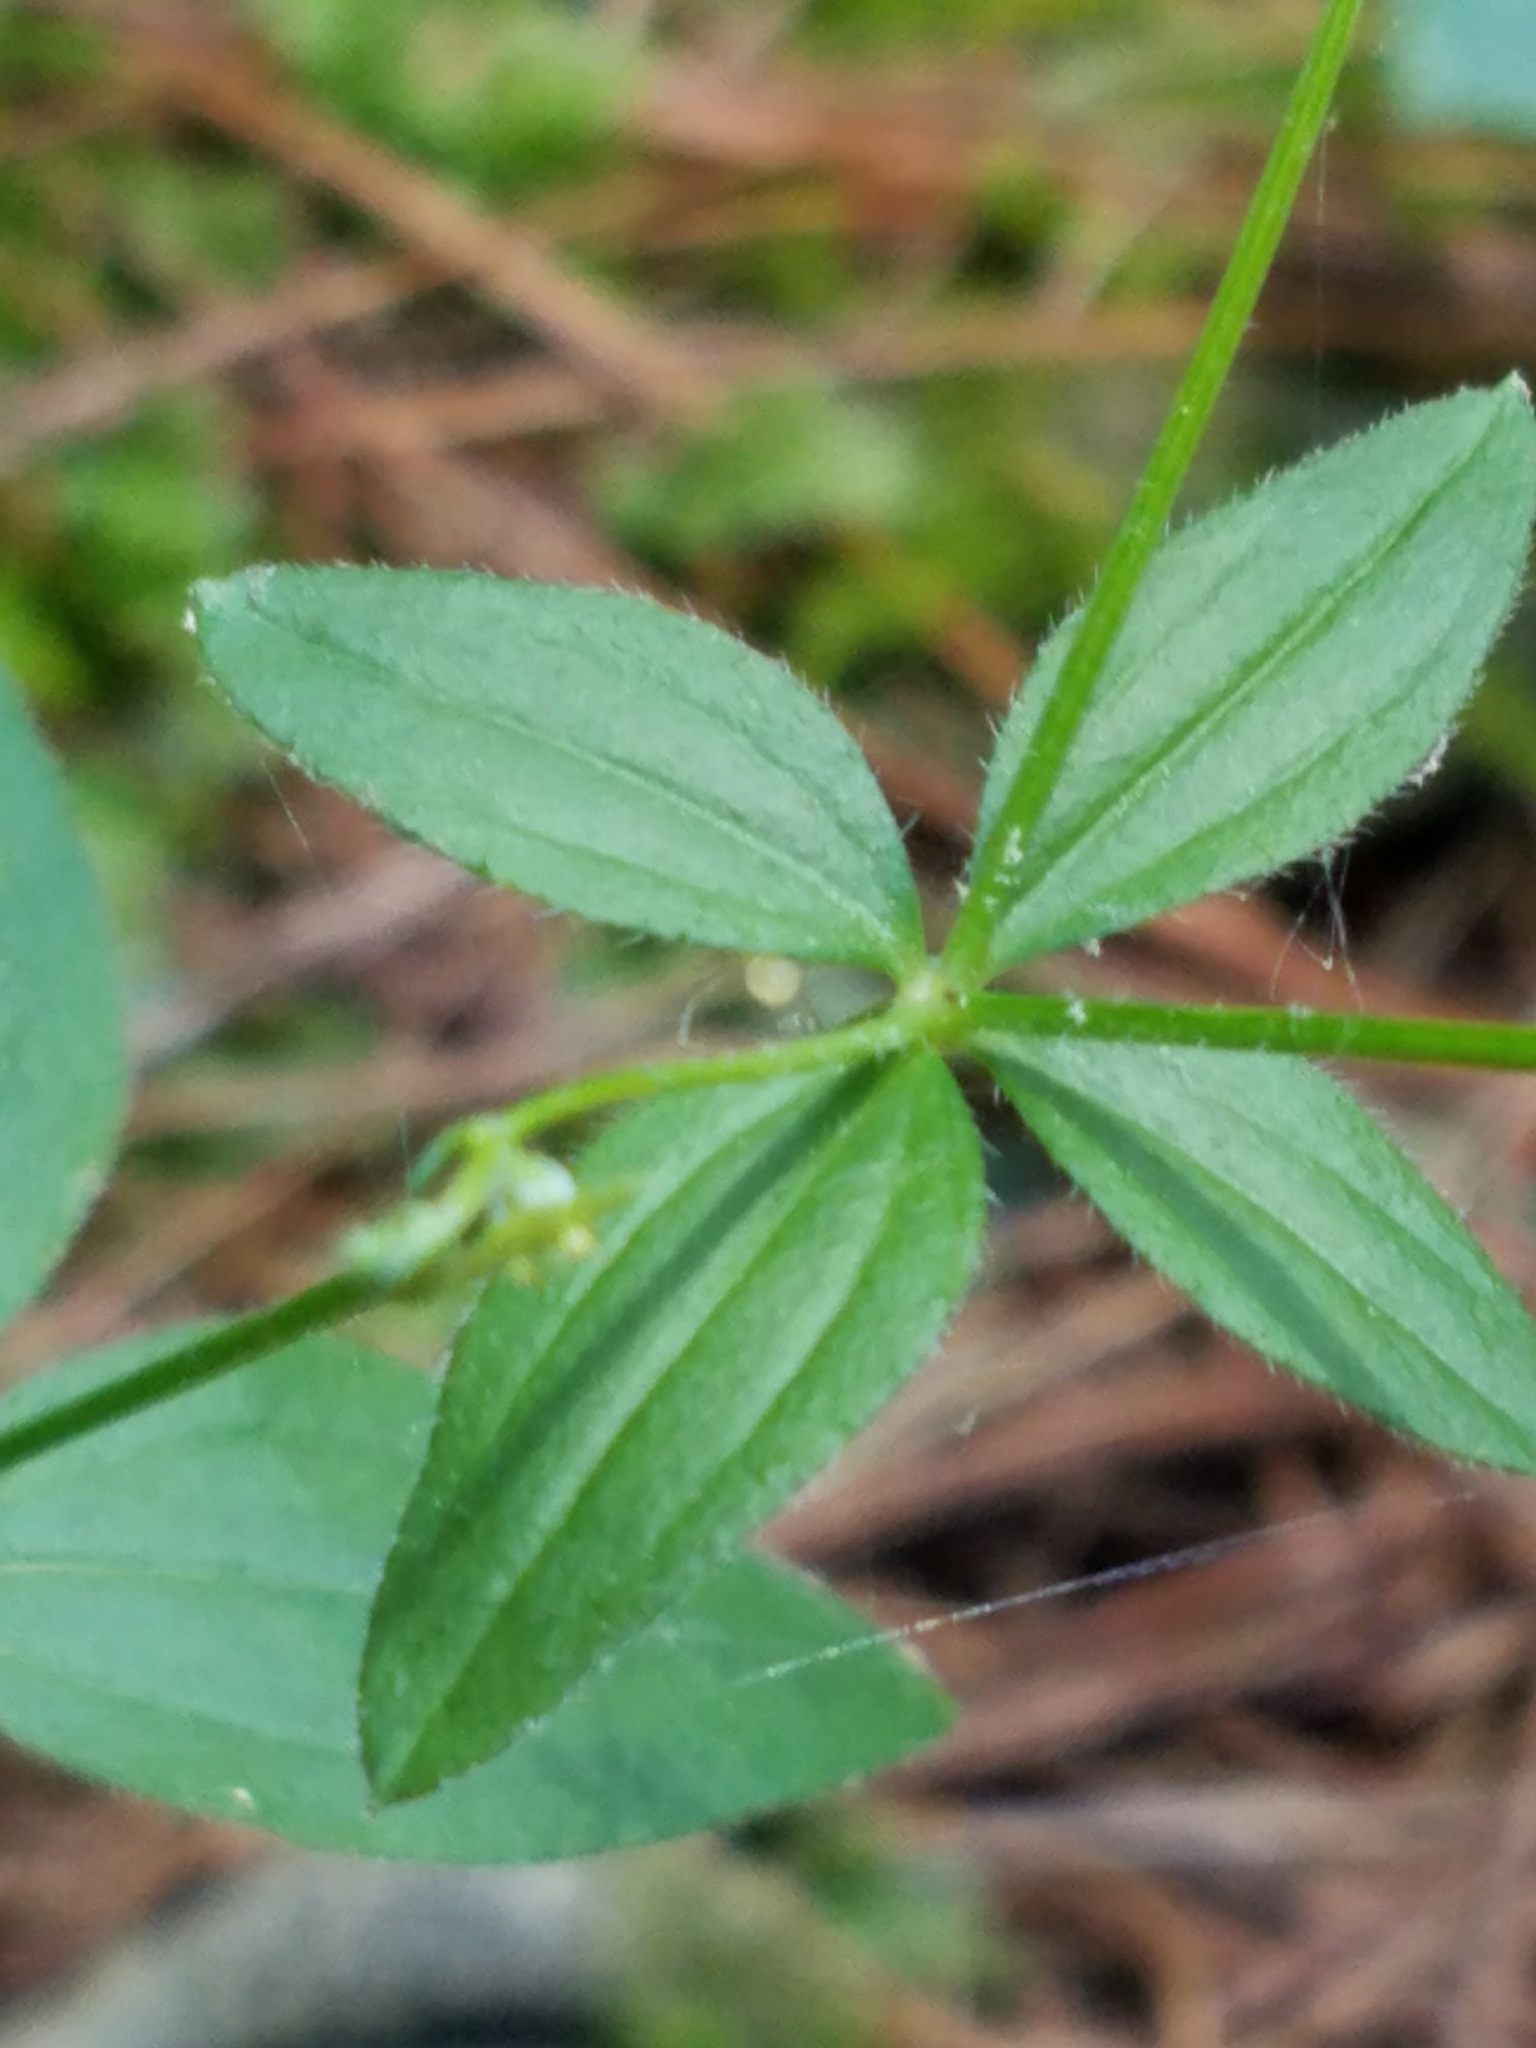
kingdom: Plantae
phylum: Tracheophyta
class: Magnoliopsida
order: Gentianales
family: Rubiaceae
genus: Galium
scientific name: Galium circaezans
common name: Forest bedstraw
